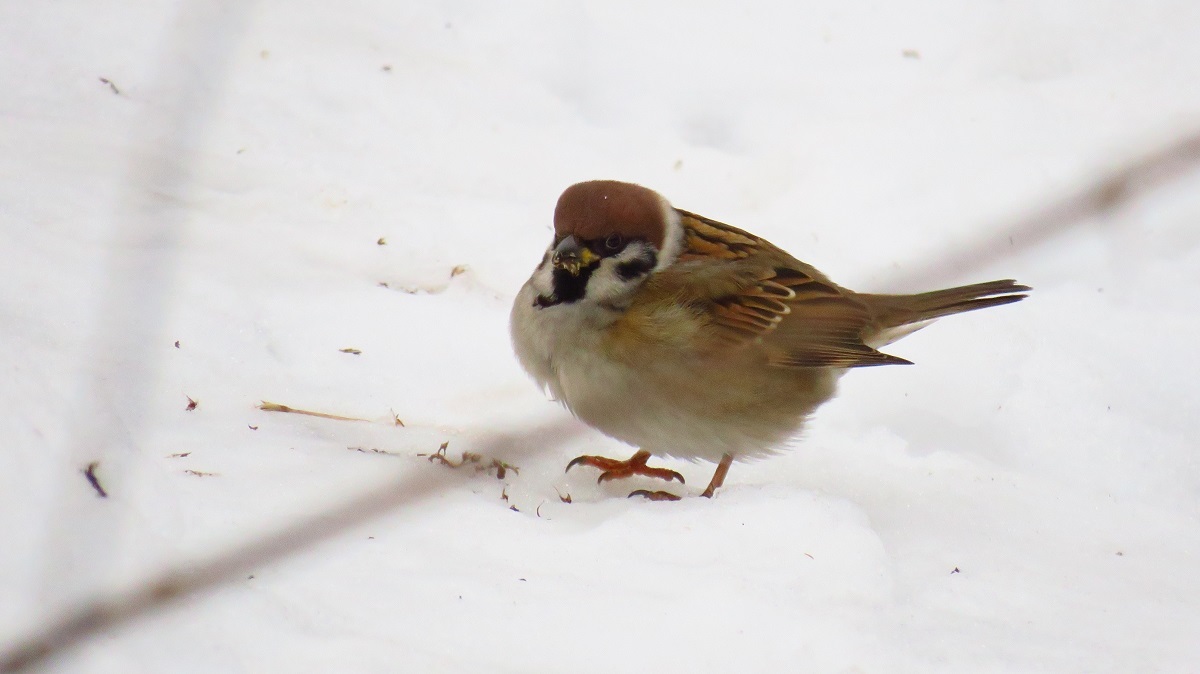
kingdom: Animalia
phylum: Chordata
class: Aves
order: Passeriformes
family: Passeridae
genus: Passer
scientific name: Passer montanus
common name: Eurasian tree sparrow
